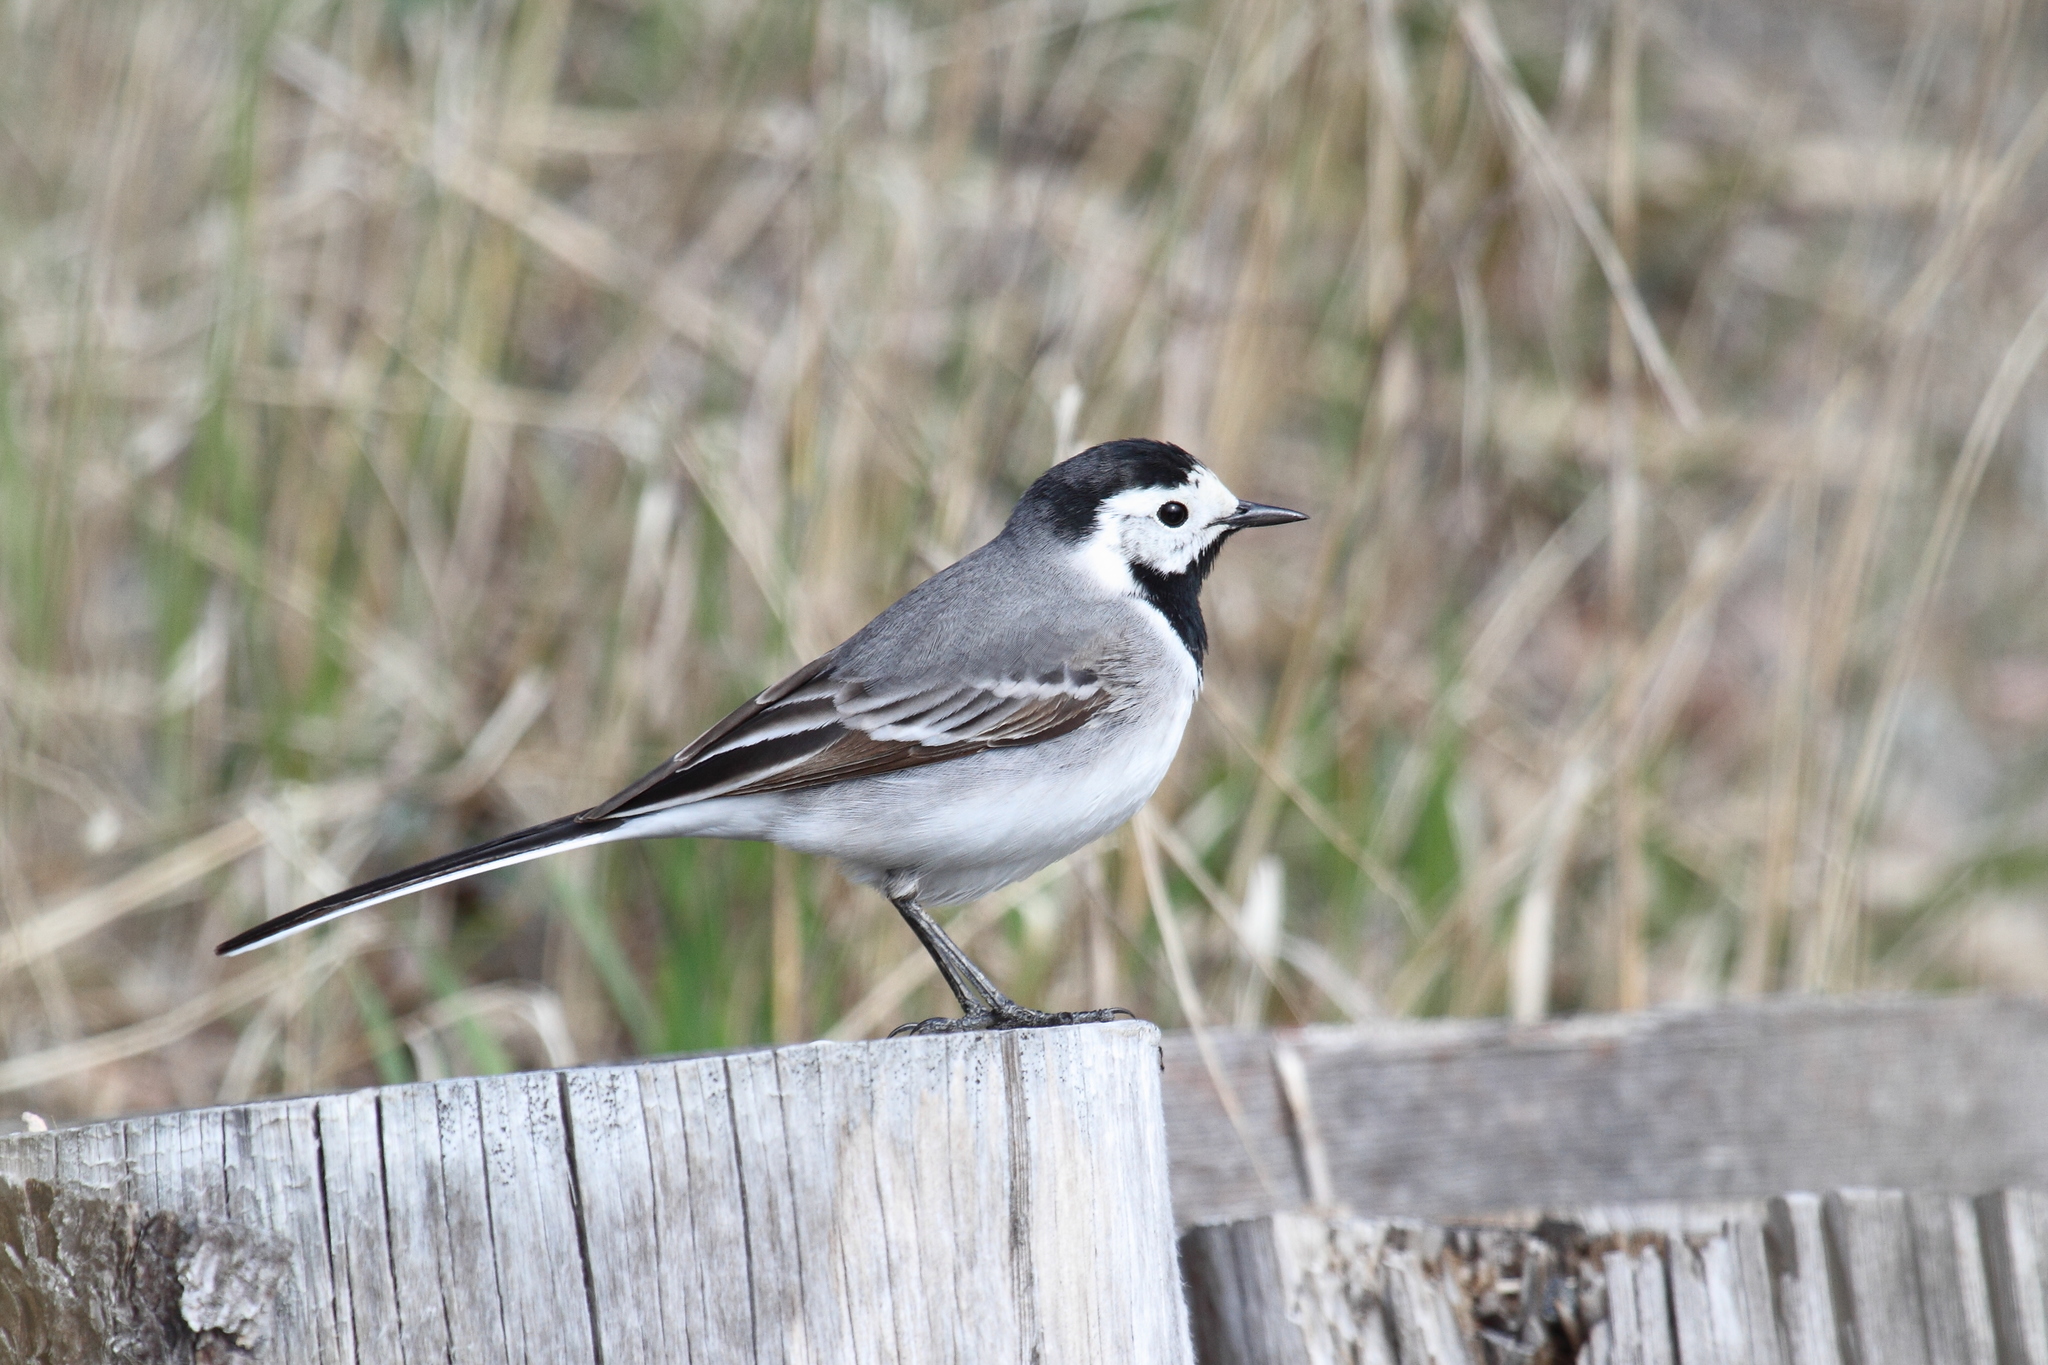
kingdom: Animalia
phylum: Chordata
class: Aves
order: Passeriformes
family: Motacillidae
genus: Motacilla
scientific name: Motacilla alba
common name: White wagtail
